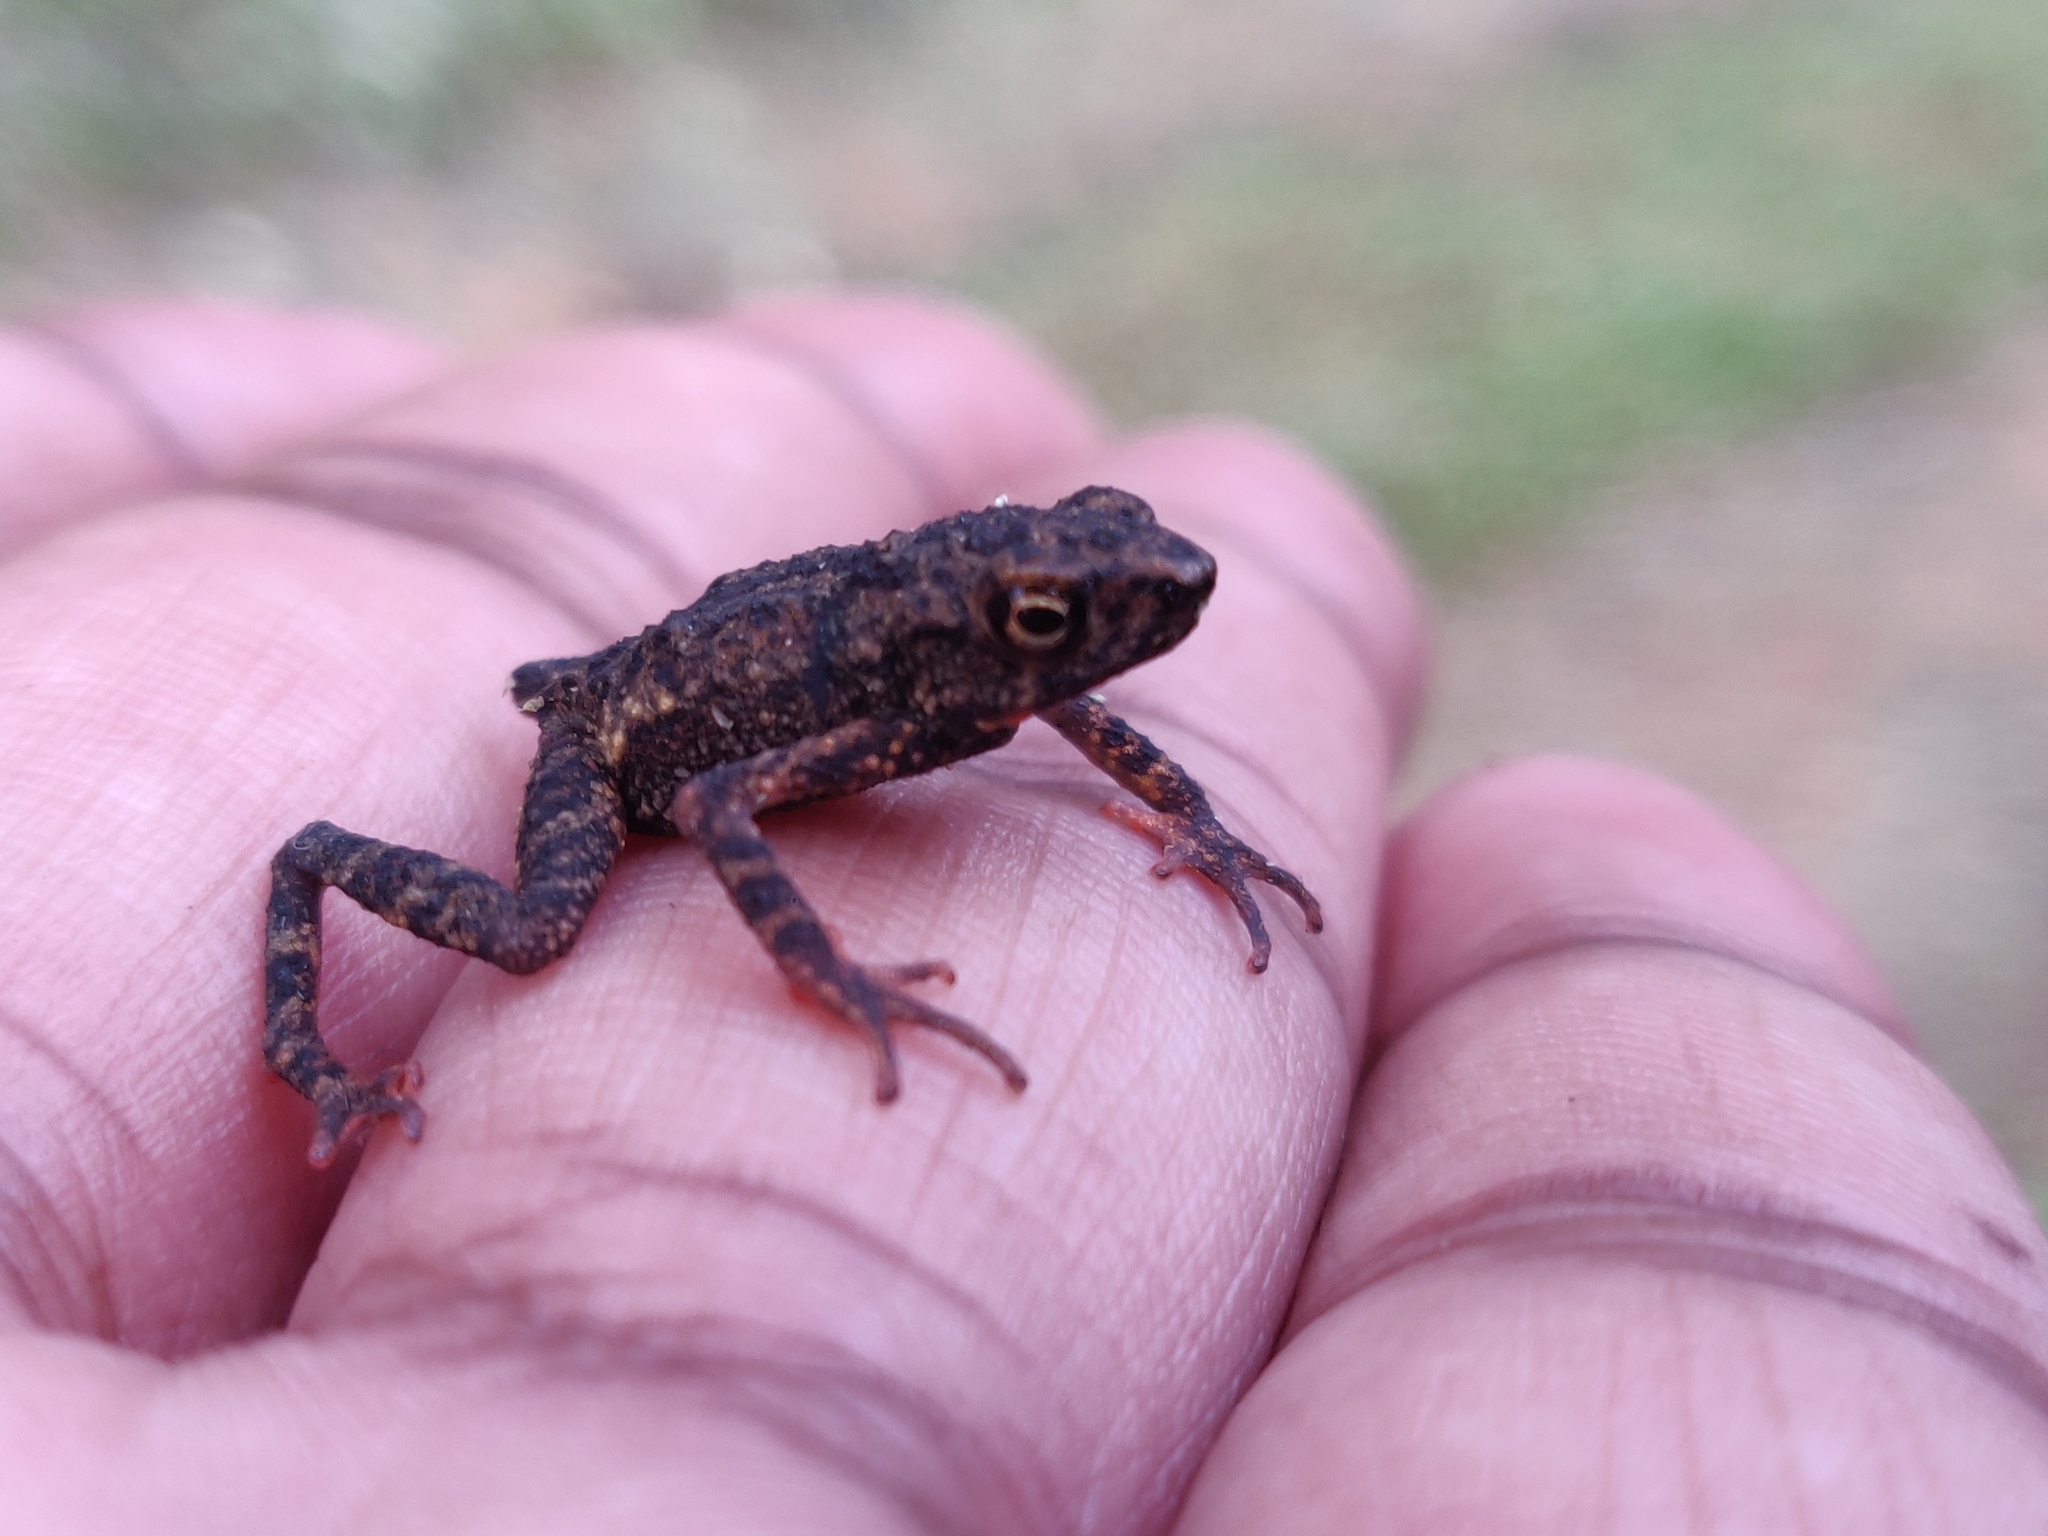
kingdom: Animalia
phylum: Chordata
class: Amphibia
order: Anura
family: Bufonidae
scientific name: Bufonidae
